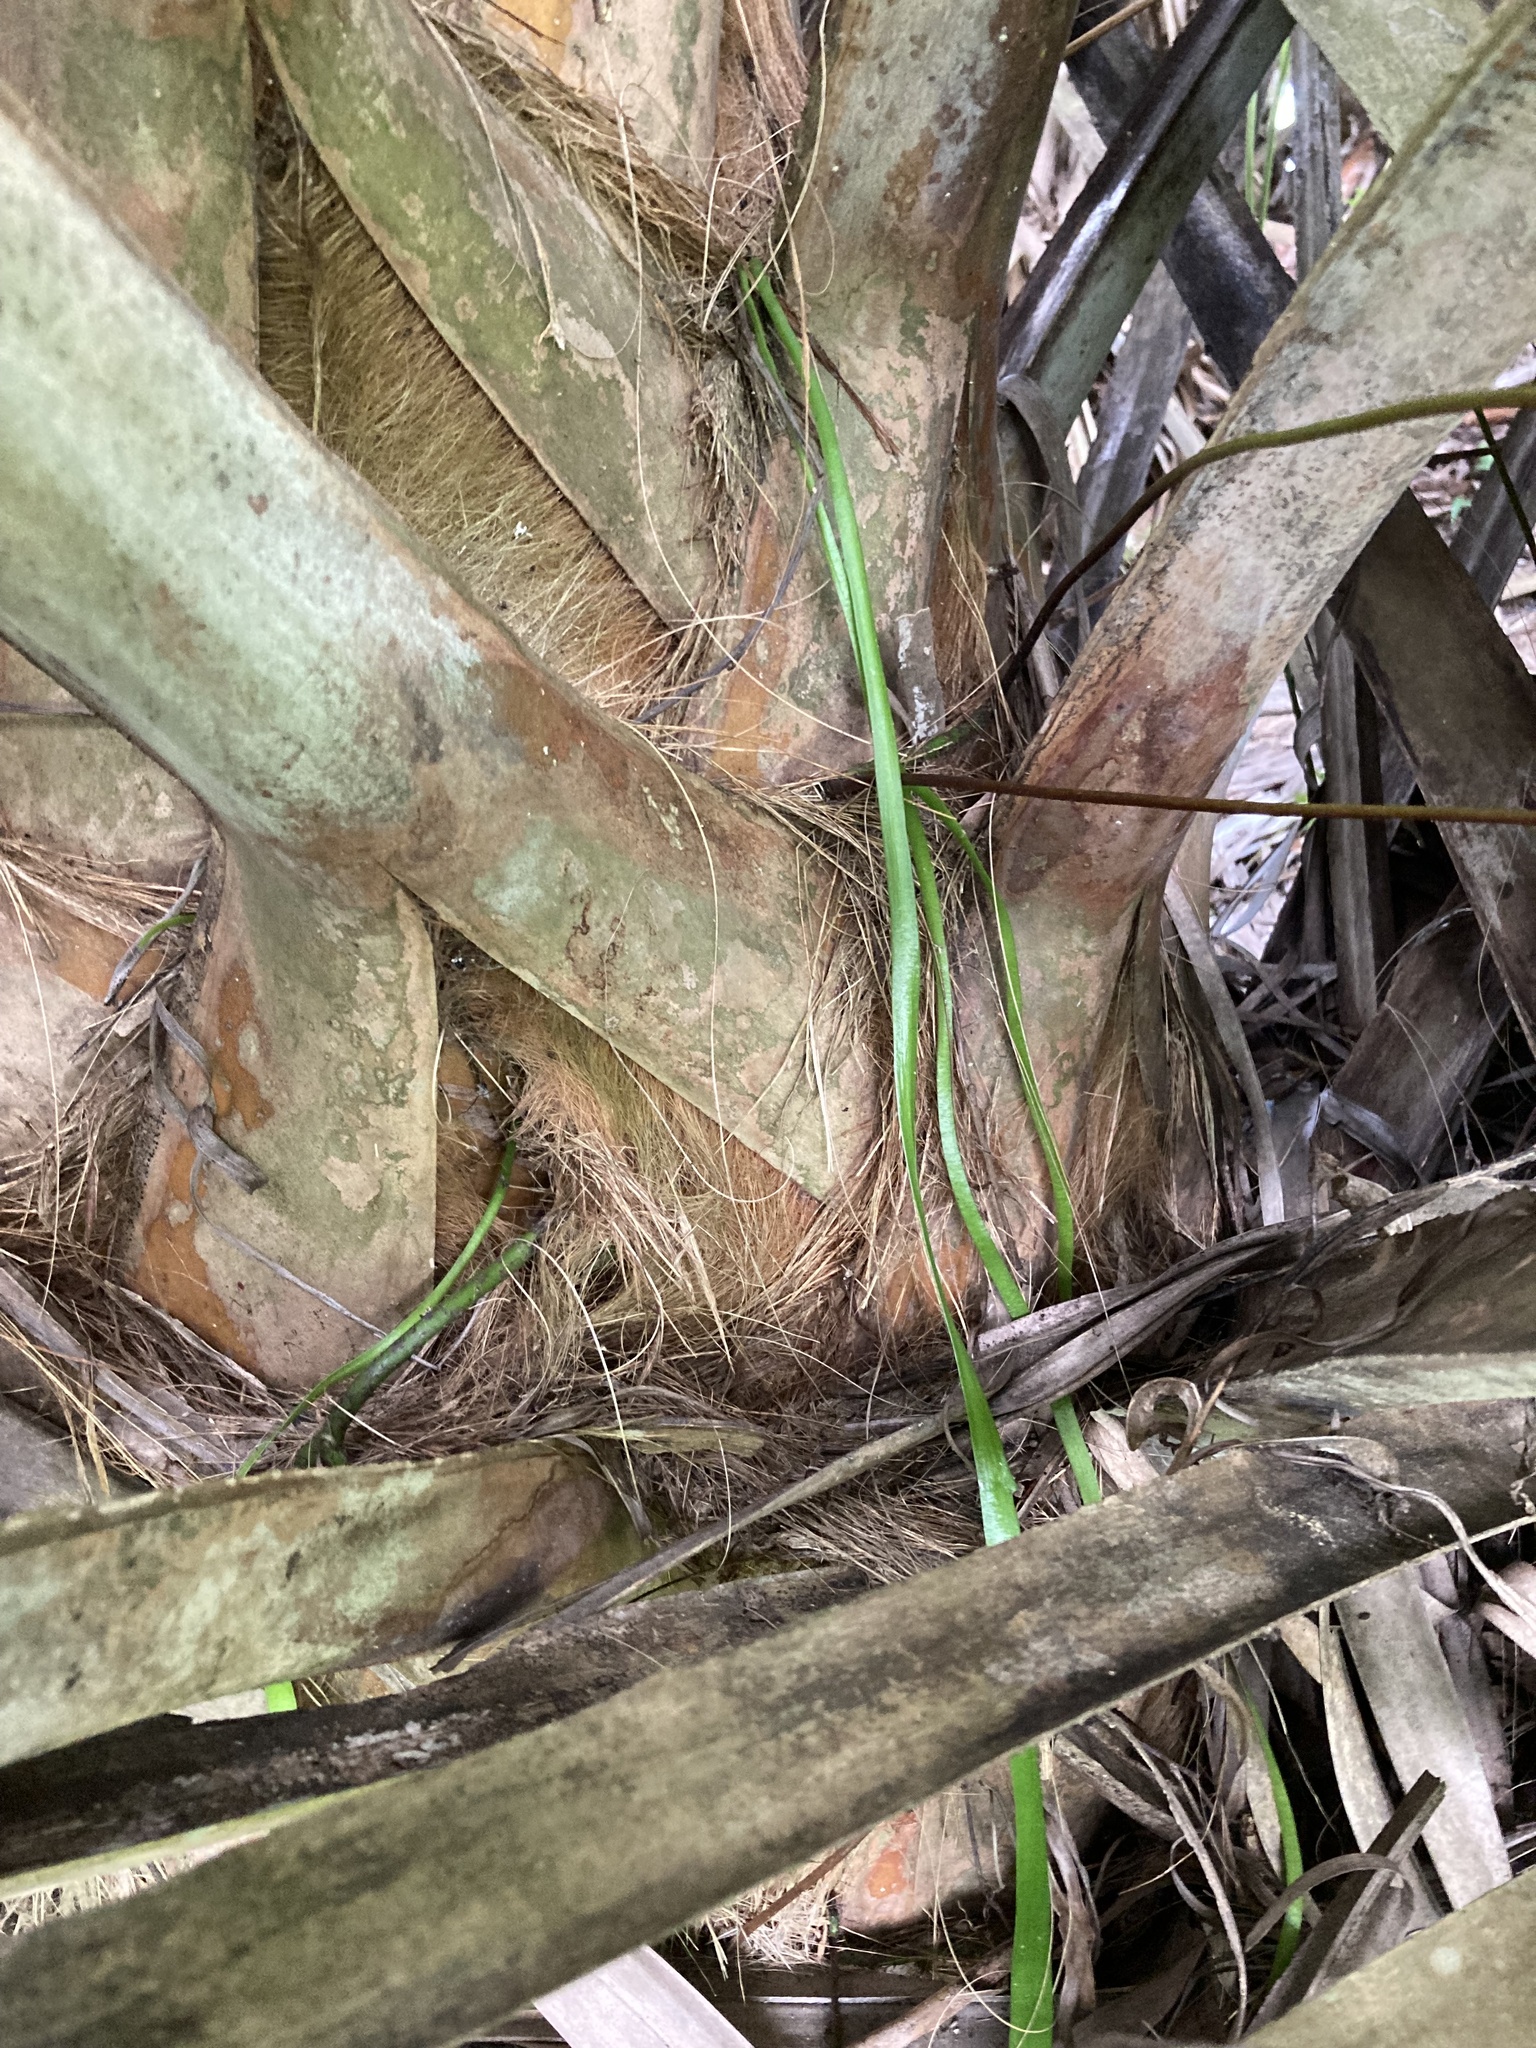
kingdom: Plantae
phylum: Tracheophyta
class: Polypodiopsida
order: Ophioglossales
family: Ophioglossaceae
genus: Ophioderma
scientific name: Ophioderma pendulum
